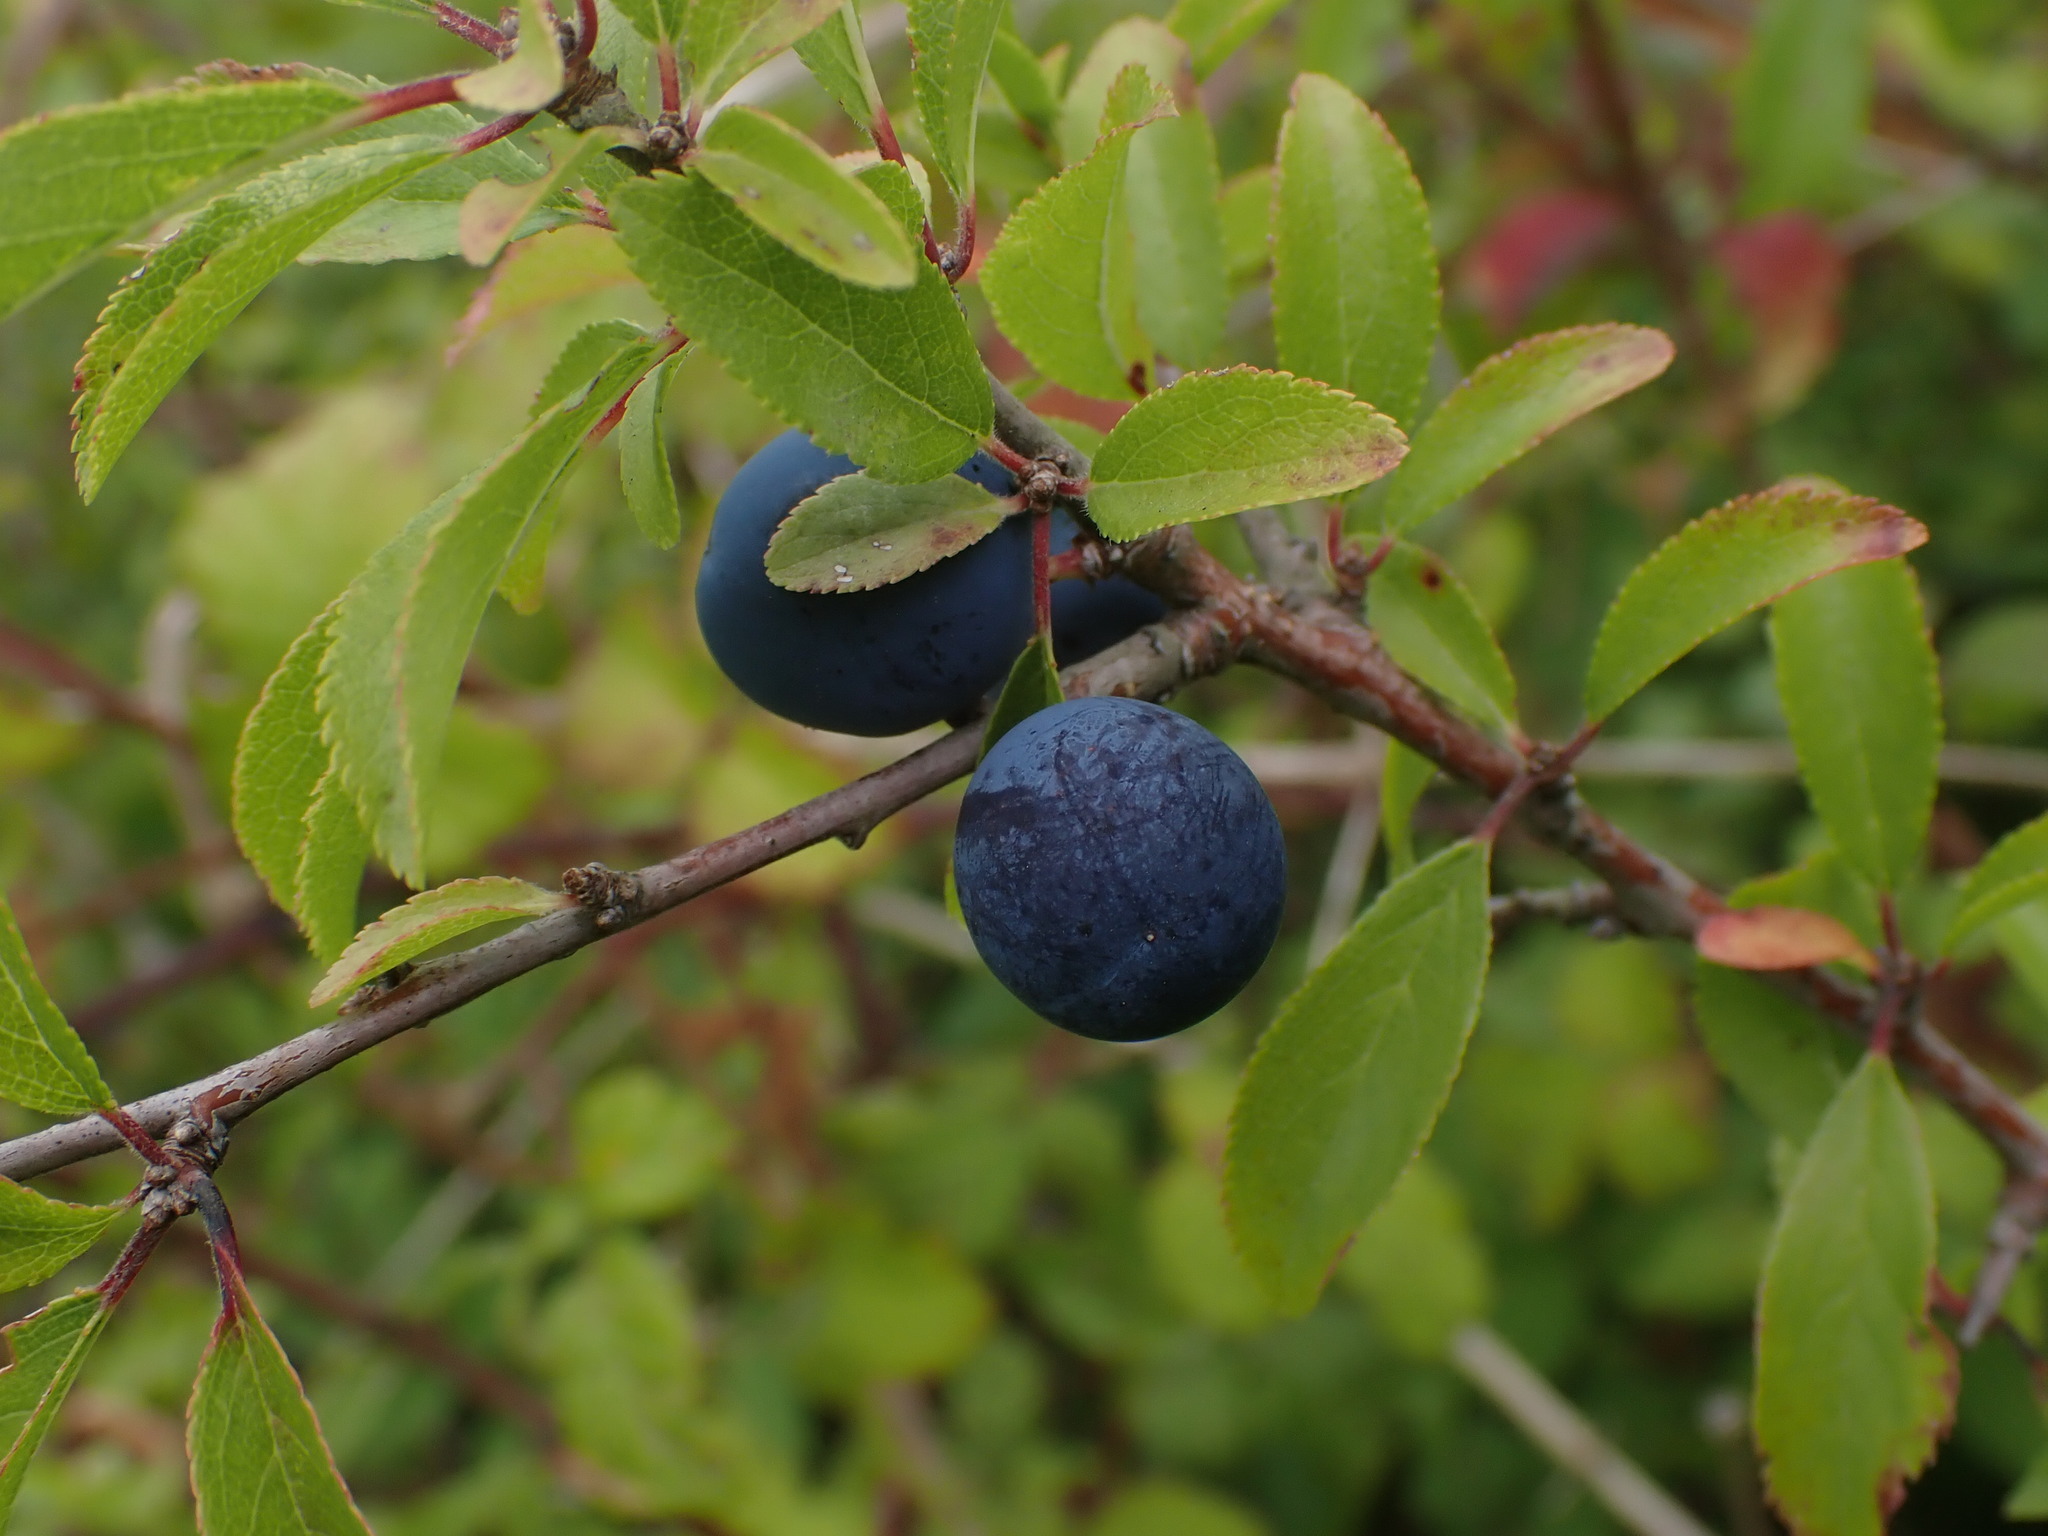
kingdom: Plantae
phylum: Tracheophyta
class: Magnoliopsida
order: Rosales
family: Rosaceae
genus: Prunus
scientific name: Prunus spinosa
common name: Blackthorn
